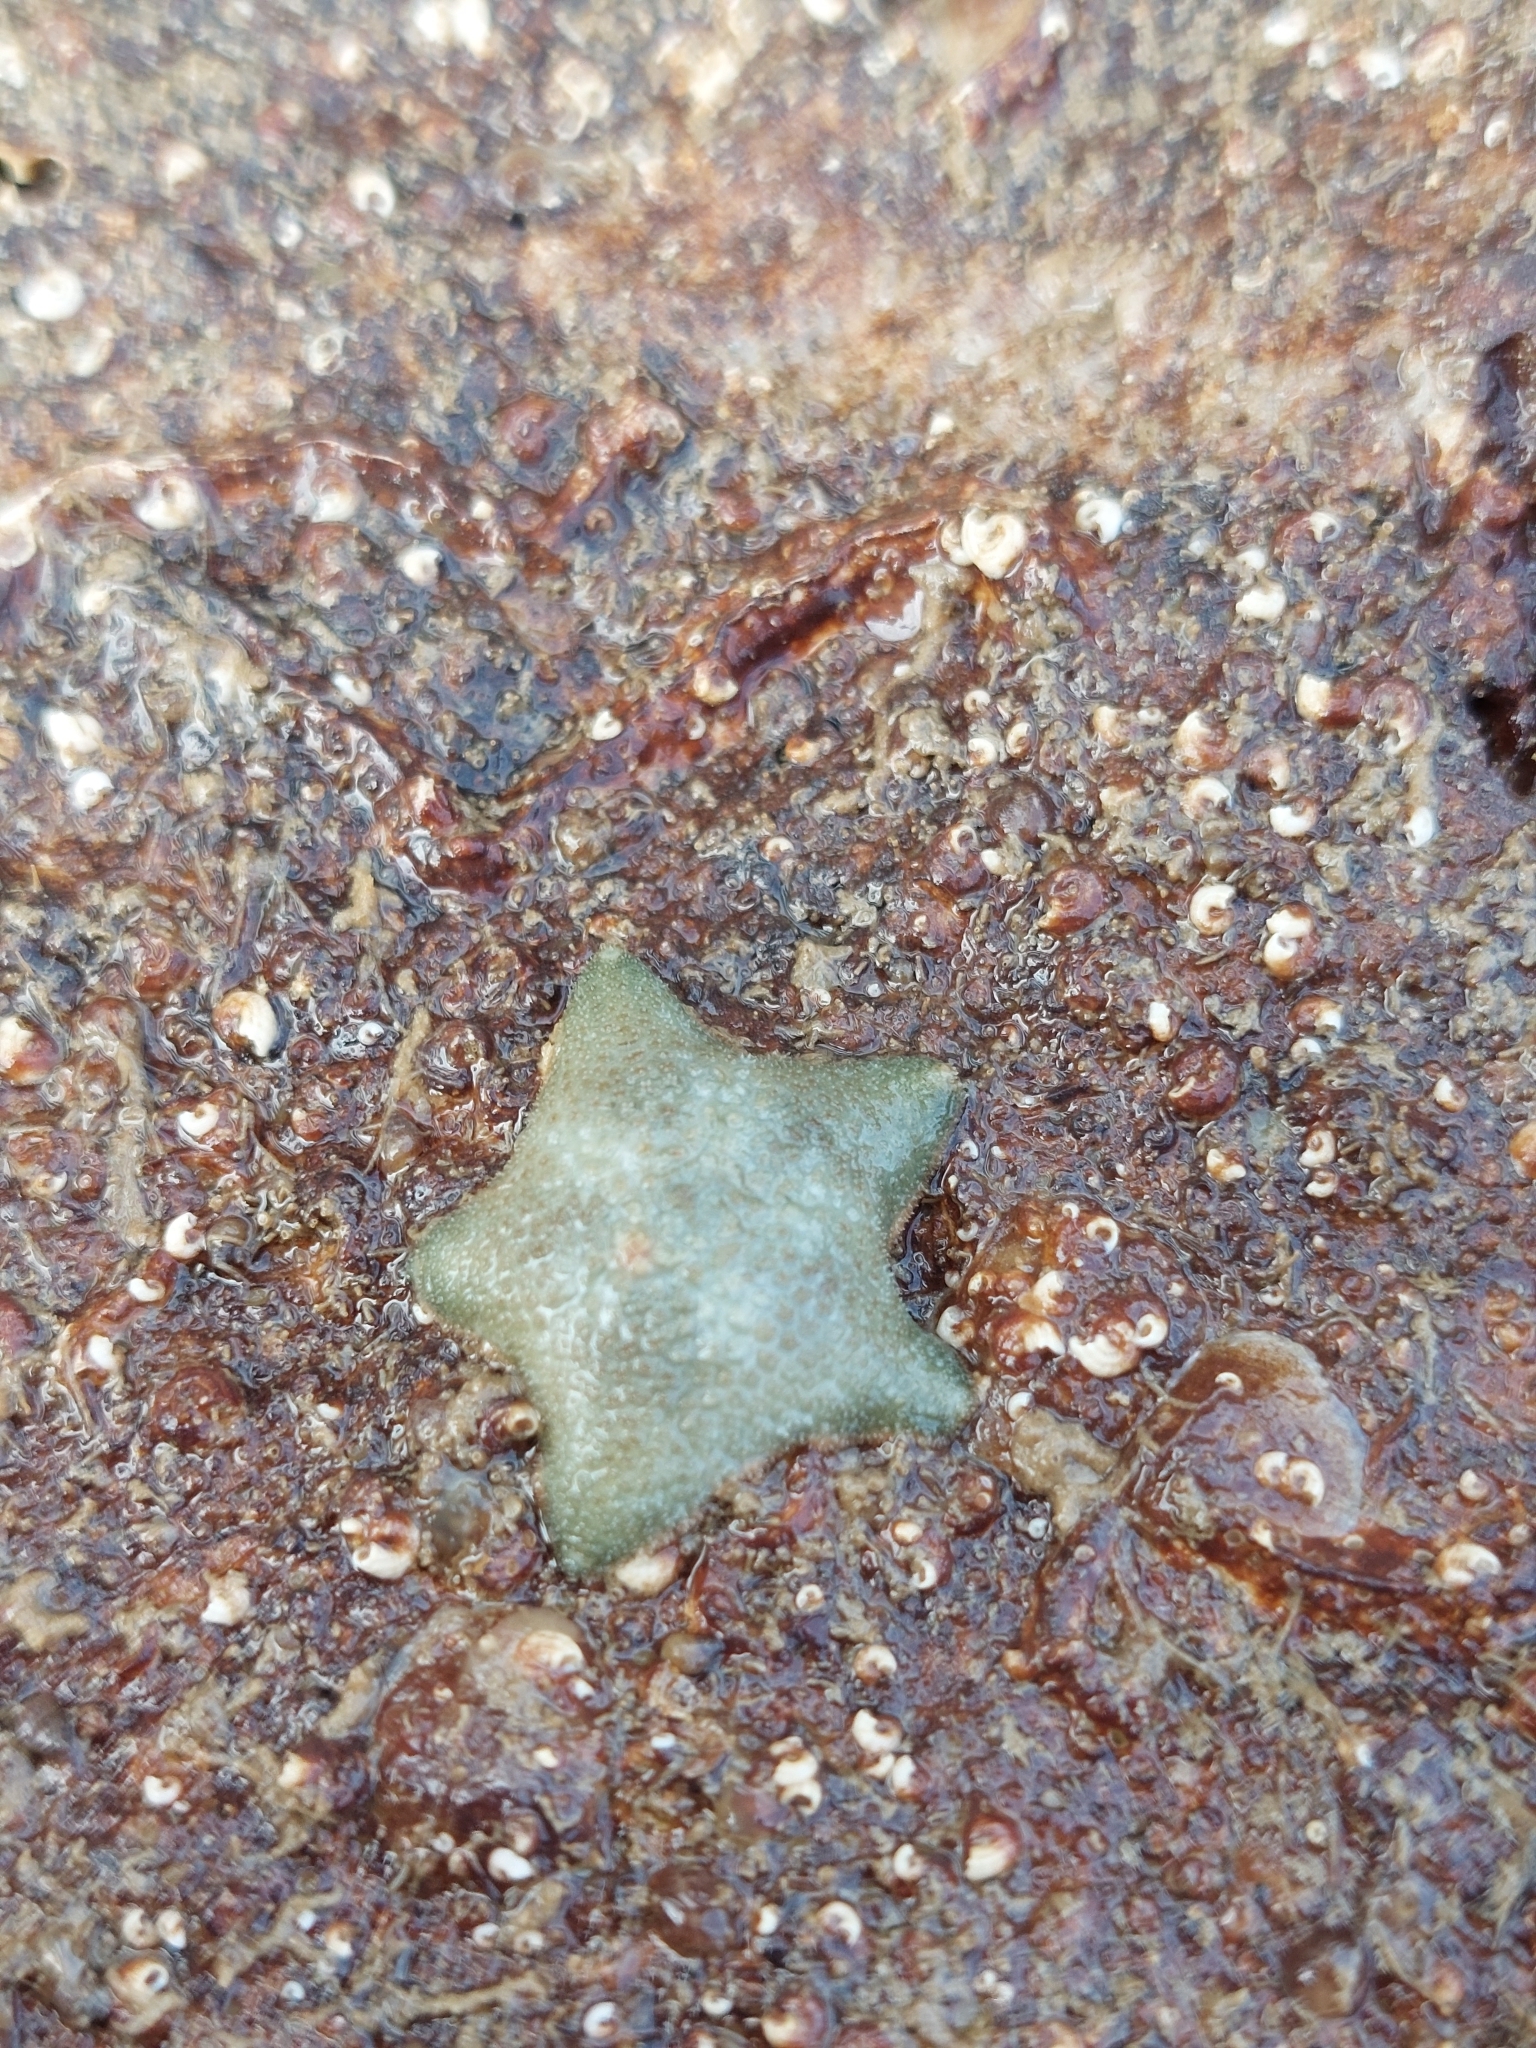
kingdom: Animalia
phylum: Echinodermata
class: Asteroidea
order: Valvatida
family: Asterinidae
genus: Asterina
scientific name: Asterina gibbosa
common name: Cushion star
